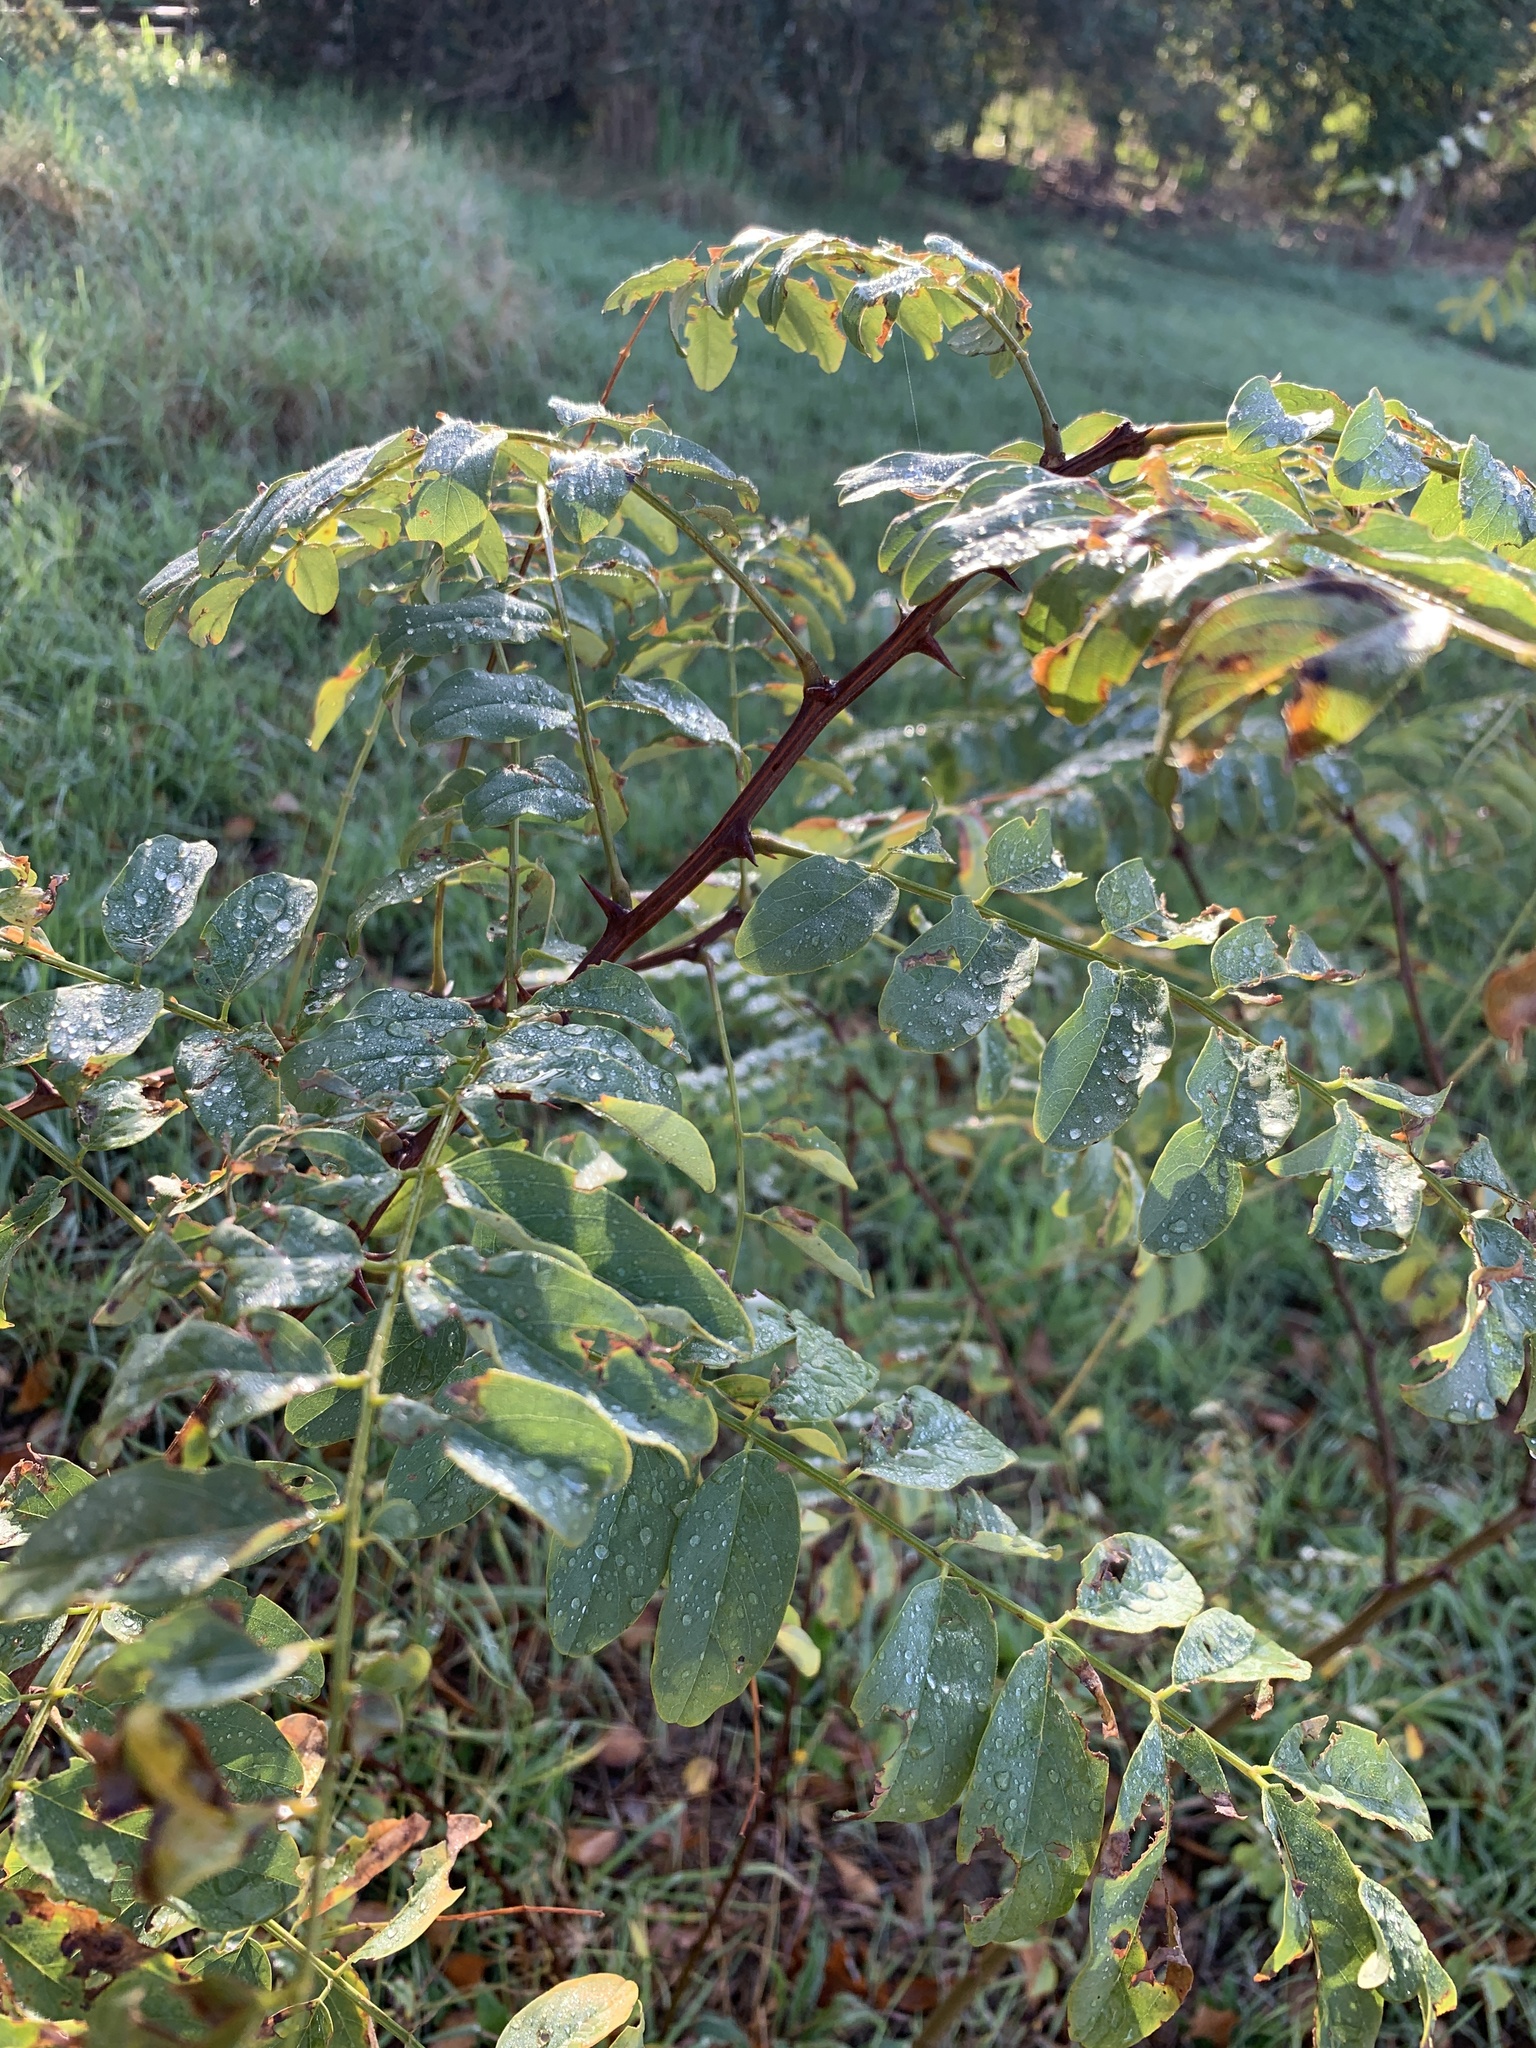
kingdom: Plantae
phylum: Tracheophyta
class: Magnoliopsida
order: Fabales
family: Fabaceae
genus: Robinia
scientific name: Robinia pseudoacacia
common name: Black locust
